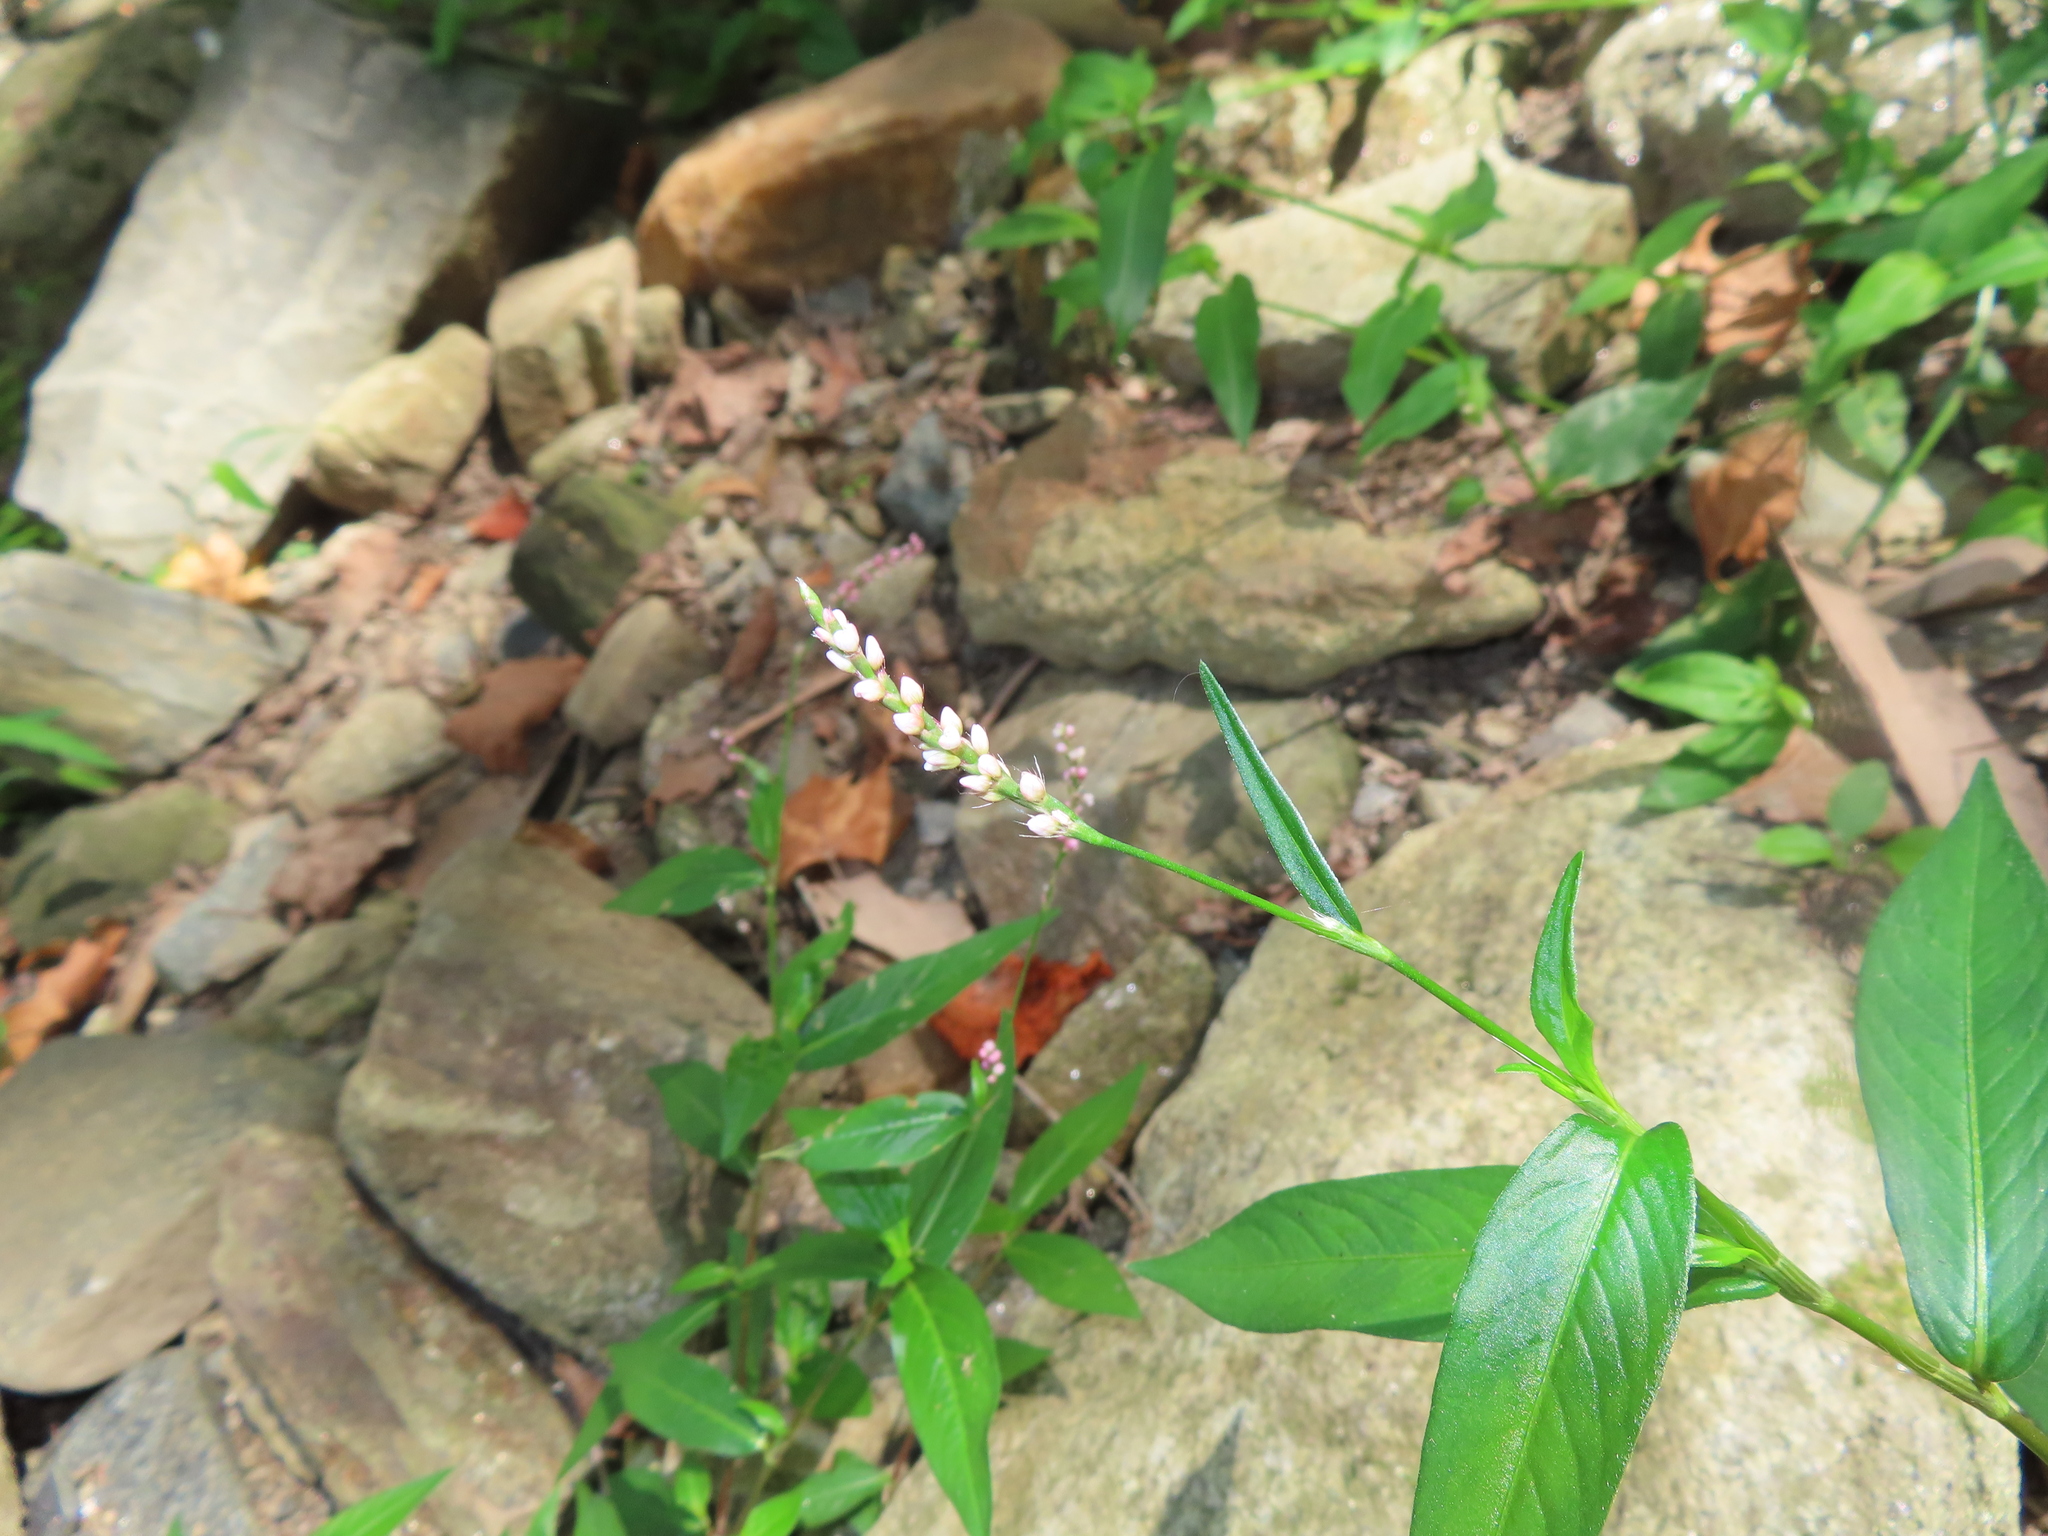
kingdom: Plantae
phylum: Tracheophyta
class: Magnoliopsida
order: Caryophyllales
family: Polygonaceae
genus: Persicaria
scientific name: Persicaria longiseta
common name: Bristly lady's-thumb
